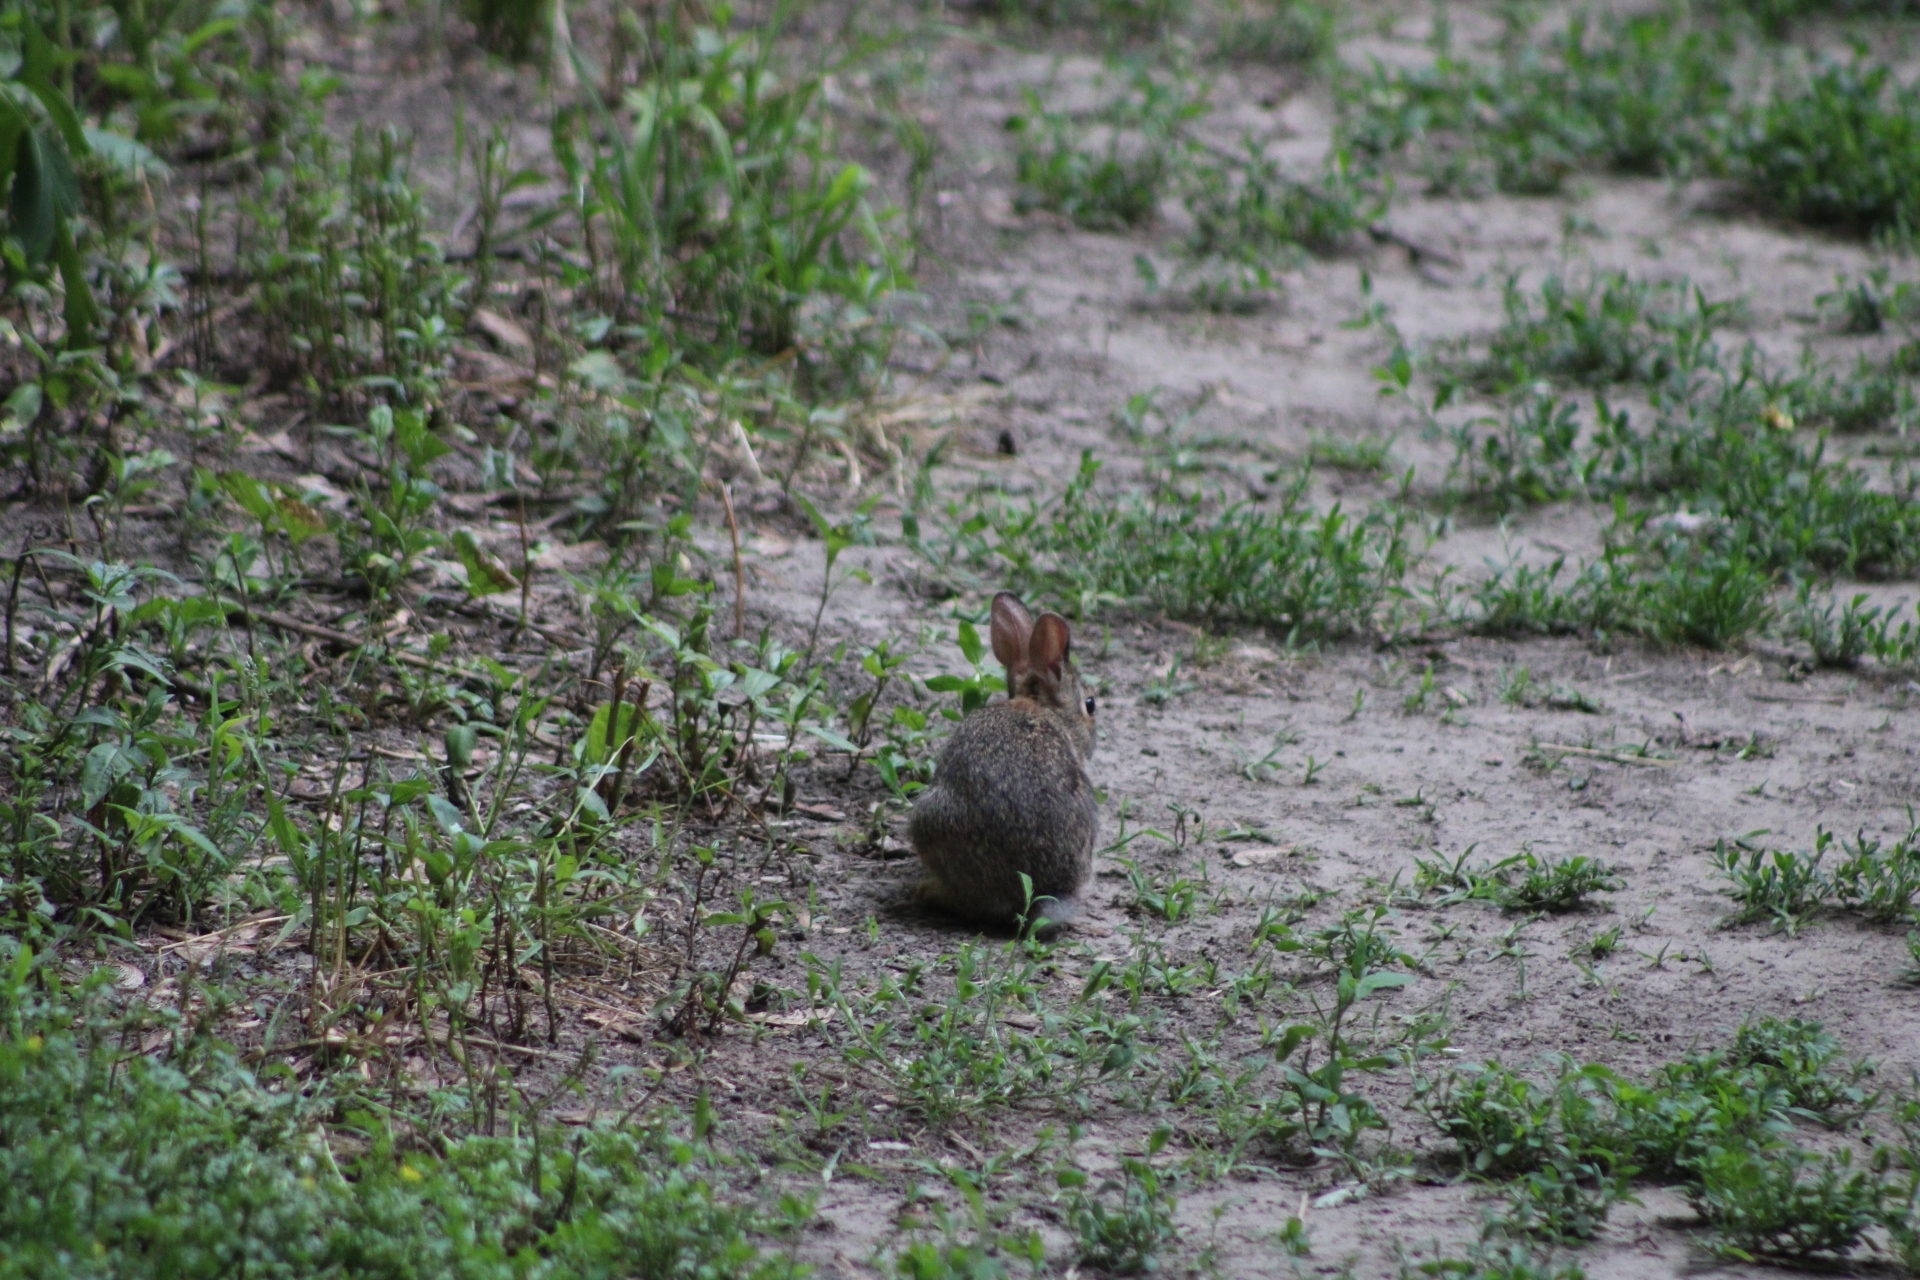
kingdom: Animalia
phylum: Chordata
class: Mammalia
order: Lagomorpha
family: Leporidae
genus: Sylvilagus
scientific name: Sylvilagus floridanus
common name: Eastern cottontail
